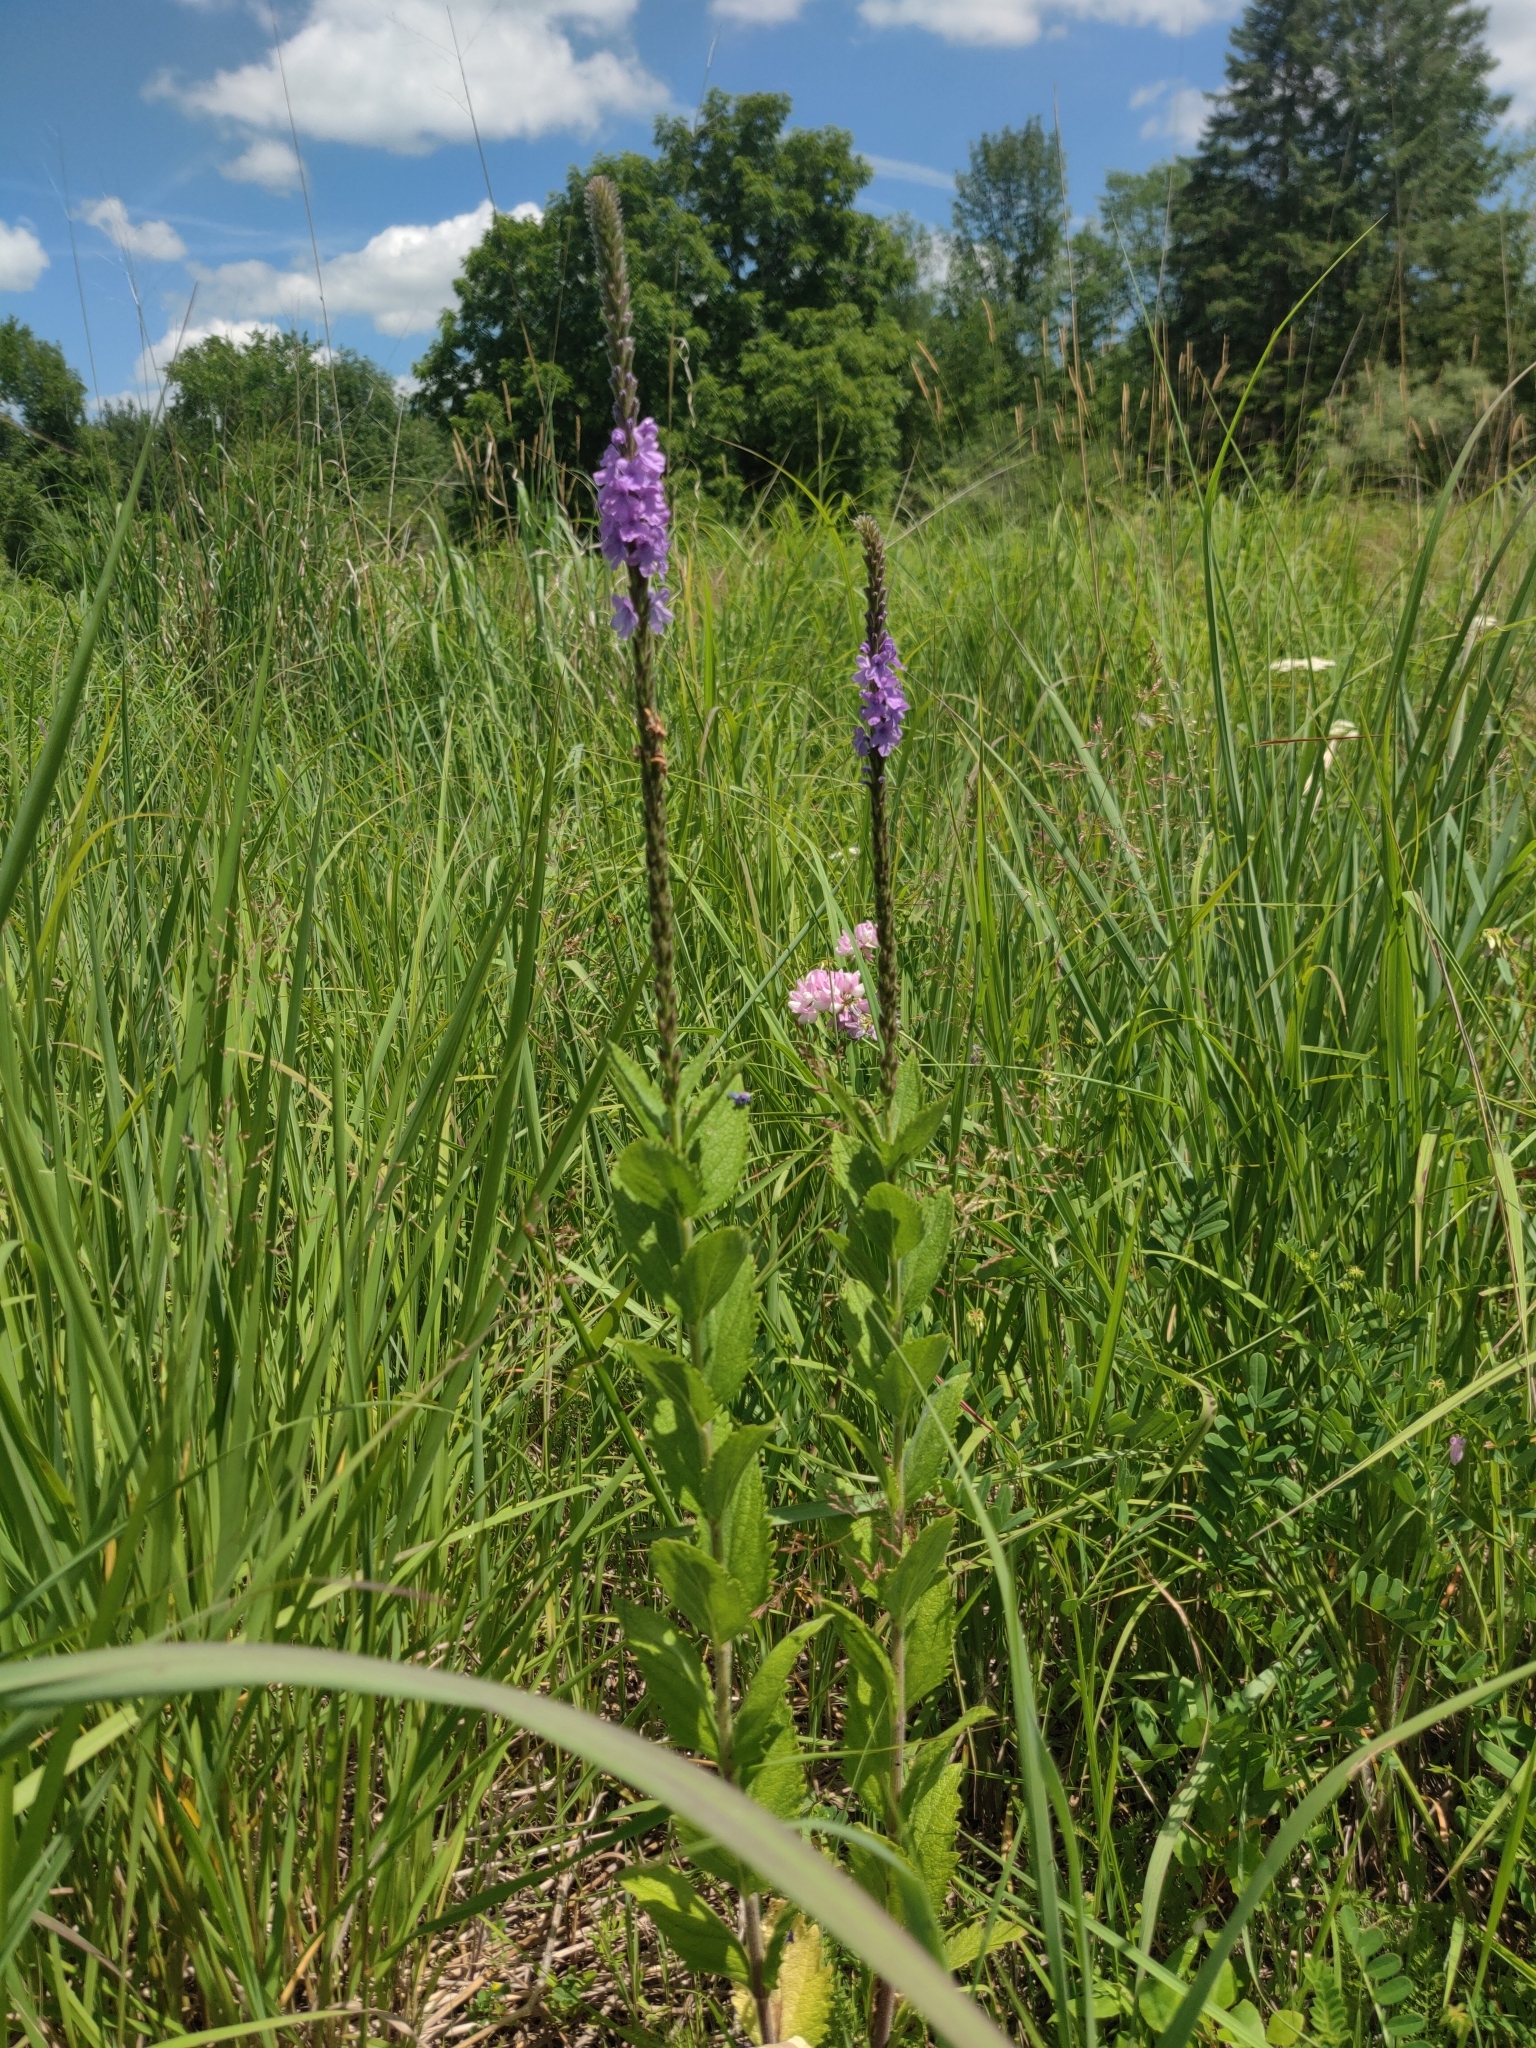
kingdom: Plantae
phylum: Tracheophyta
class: Magnoliopsida
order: Lamiales
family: Verbenaceae
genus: Verbena
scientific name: Verbena stricta
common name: Hoary vervain
